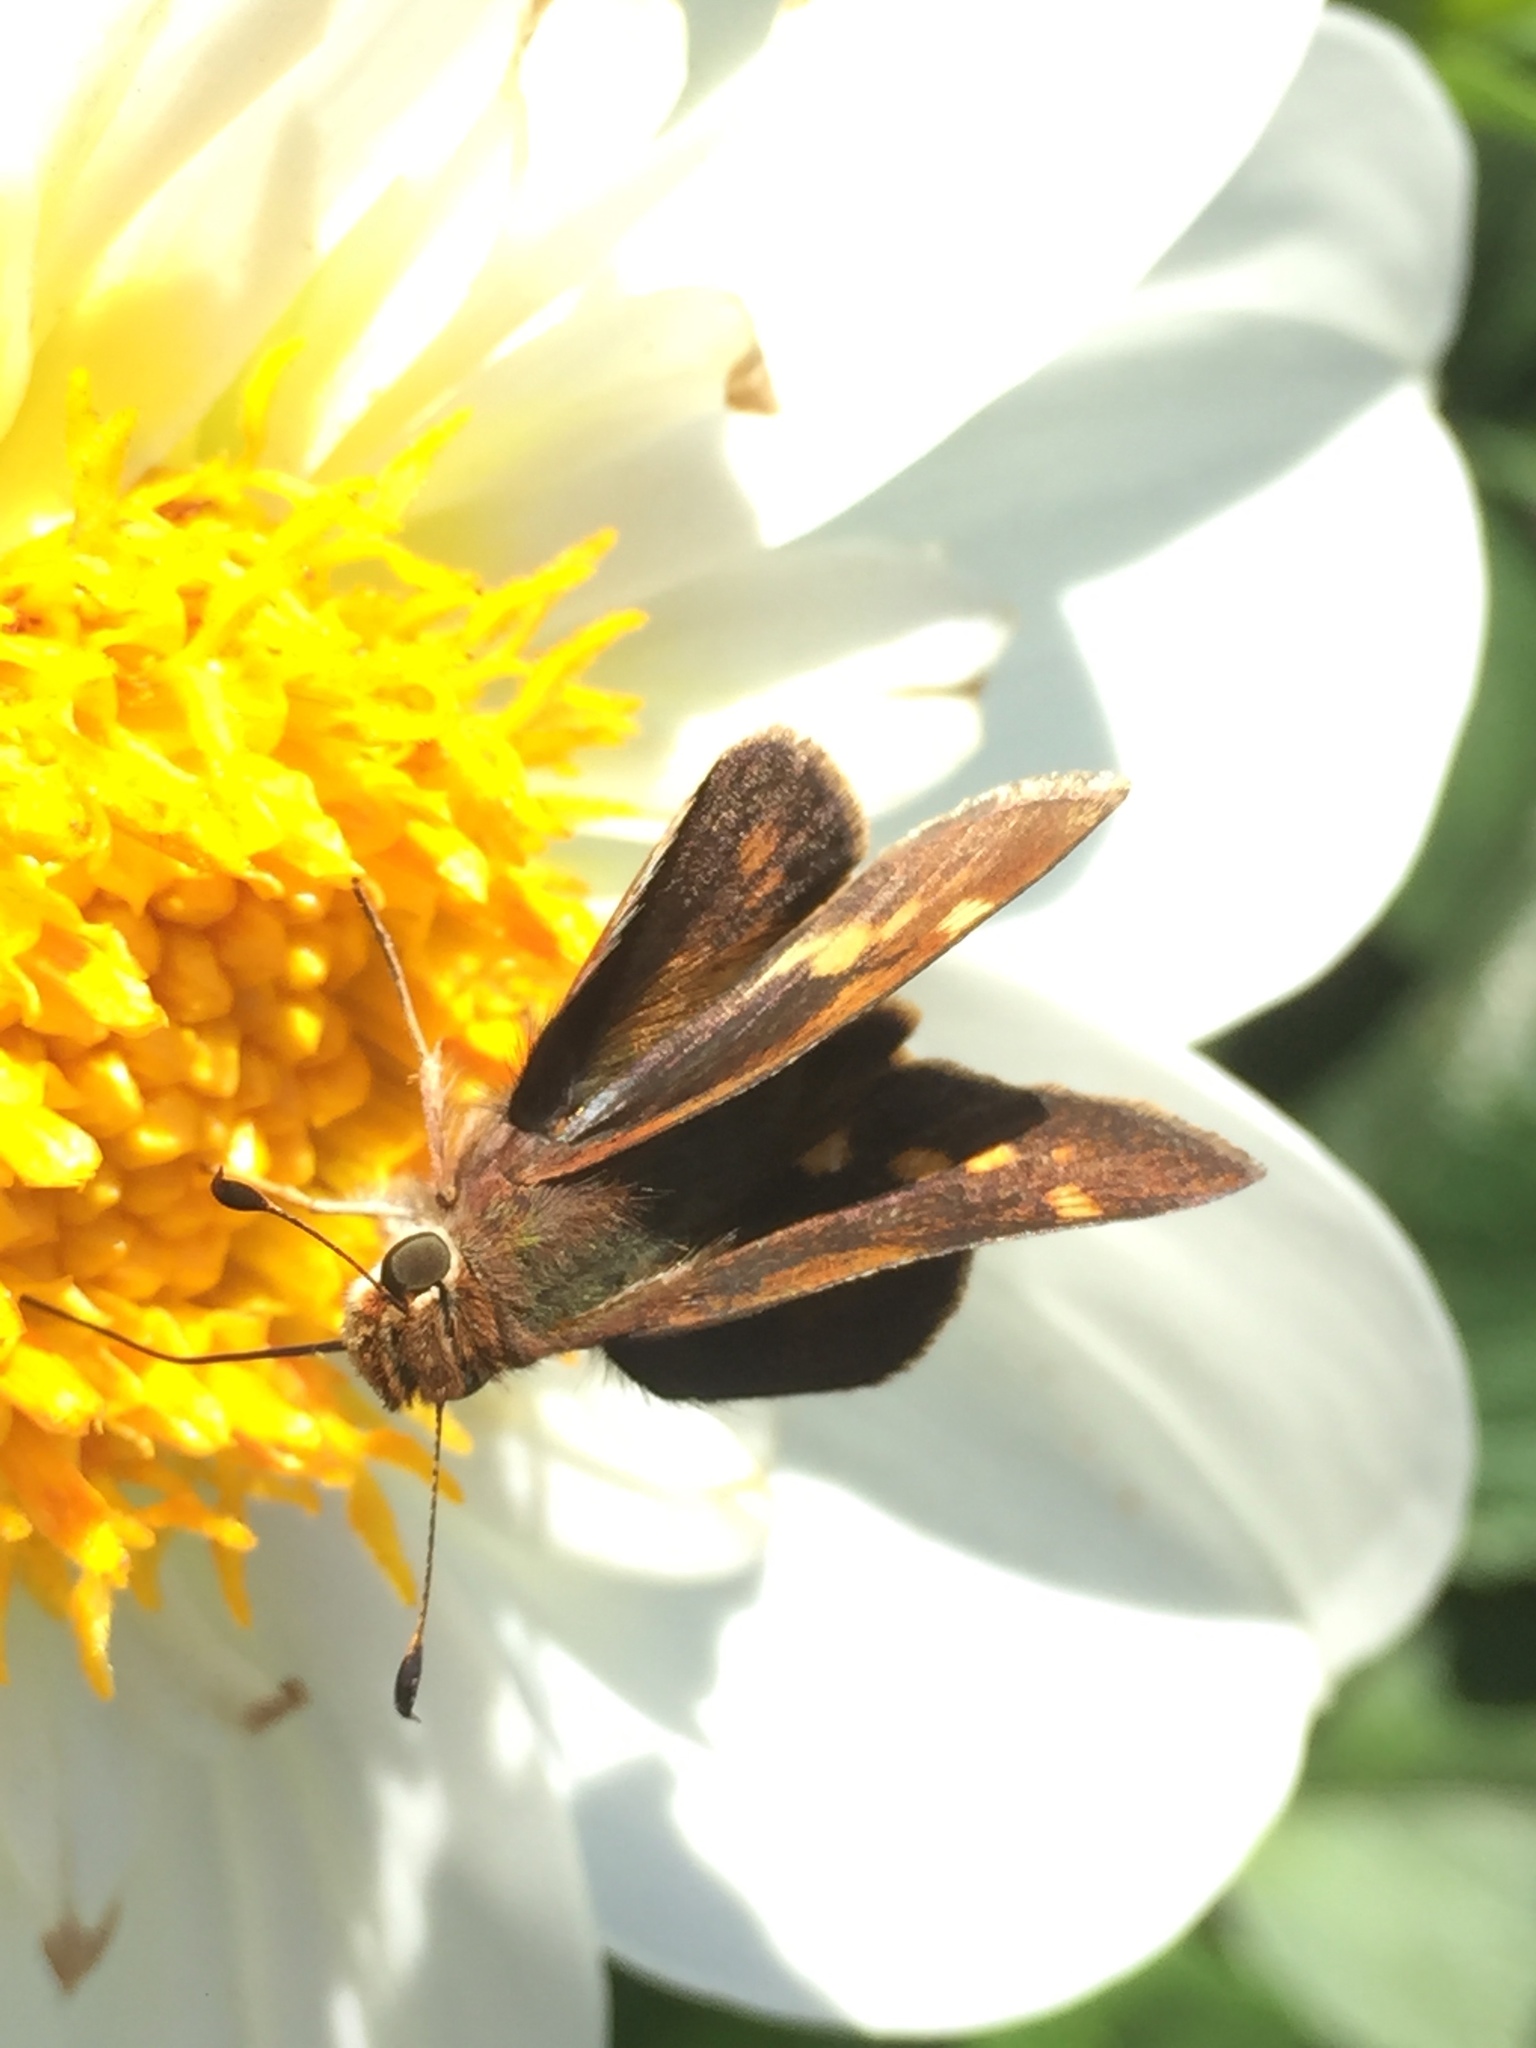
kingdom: Animalia
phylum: Arthropoda
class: Insecta
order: Lepidoptera
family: Hesperiidae
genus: Lon
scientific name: Lon melane
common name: Umber skipper
